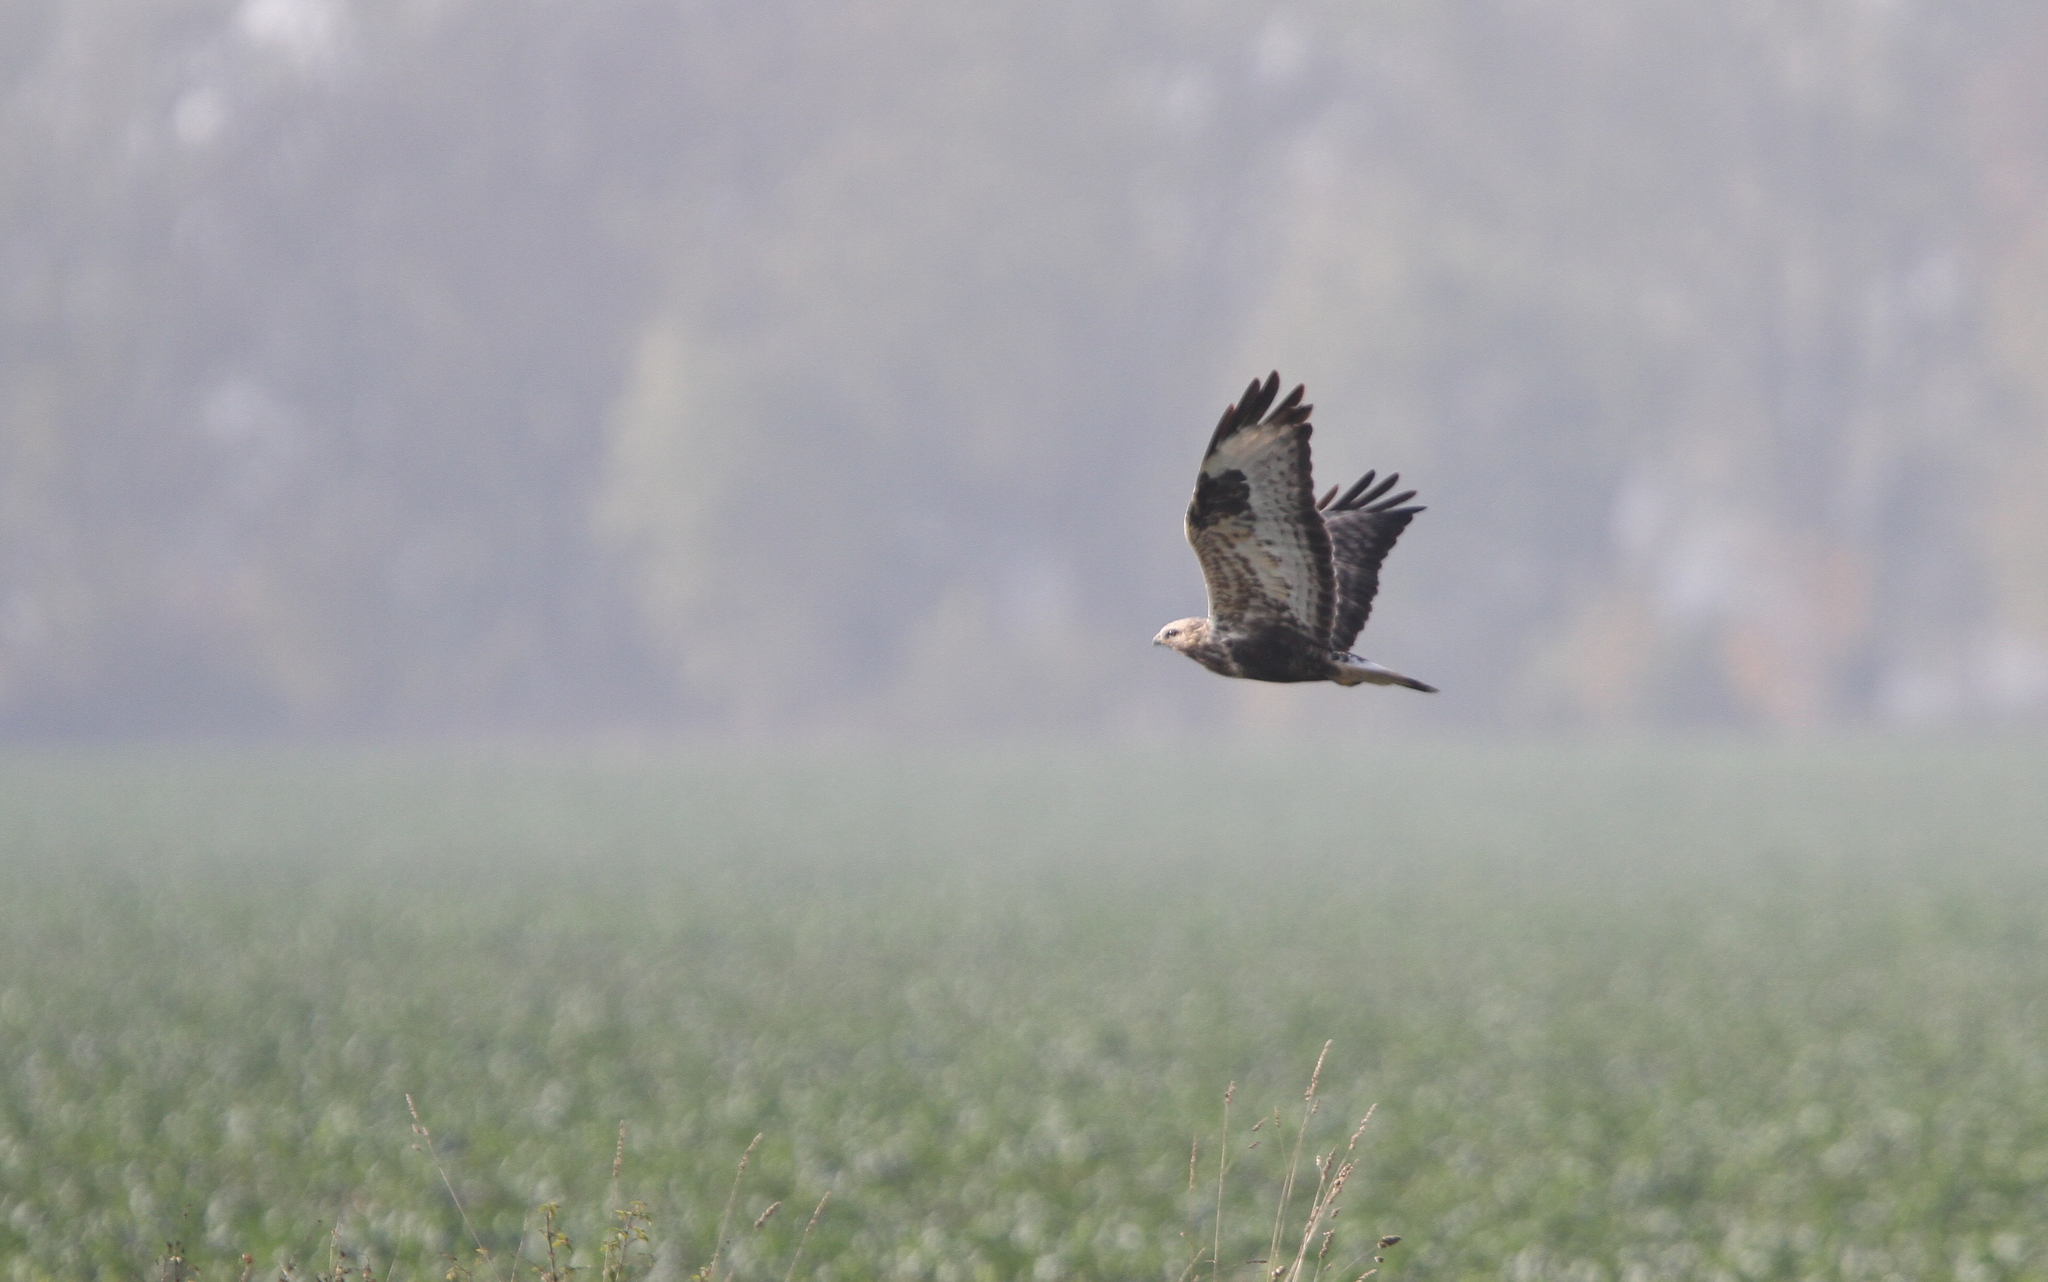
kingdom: Animalia
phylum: Chordata
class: Aves
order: Accipitriformes
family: Accipitridae
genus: Buteo
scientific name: Buteo lagopus
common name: Rough-legged buzzard
